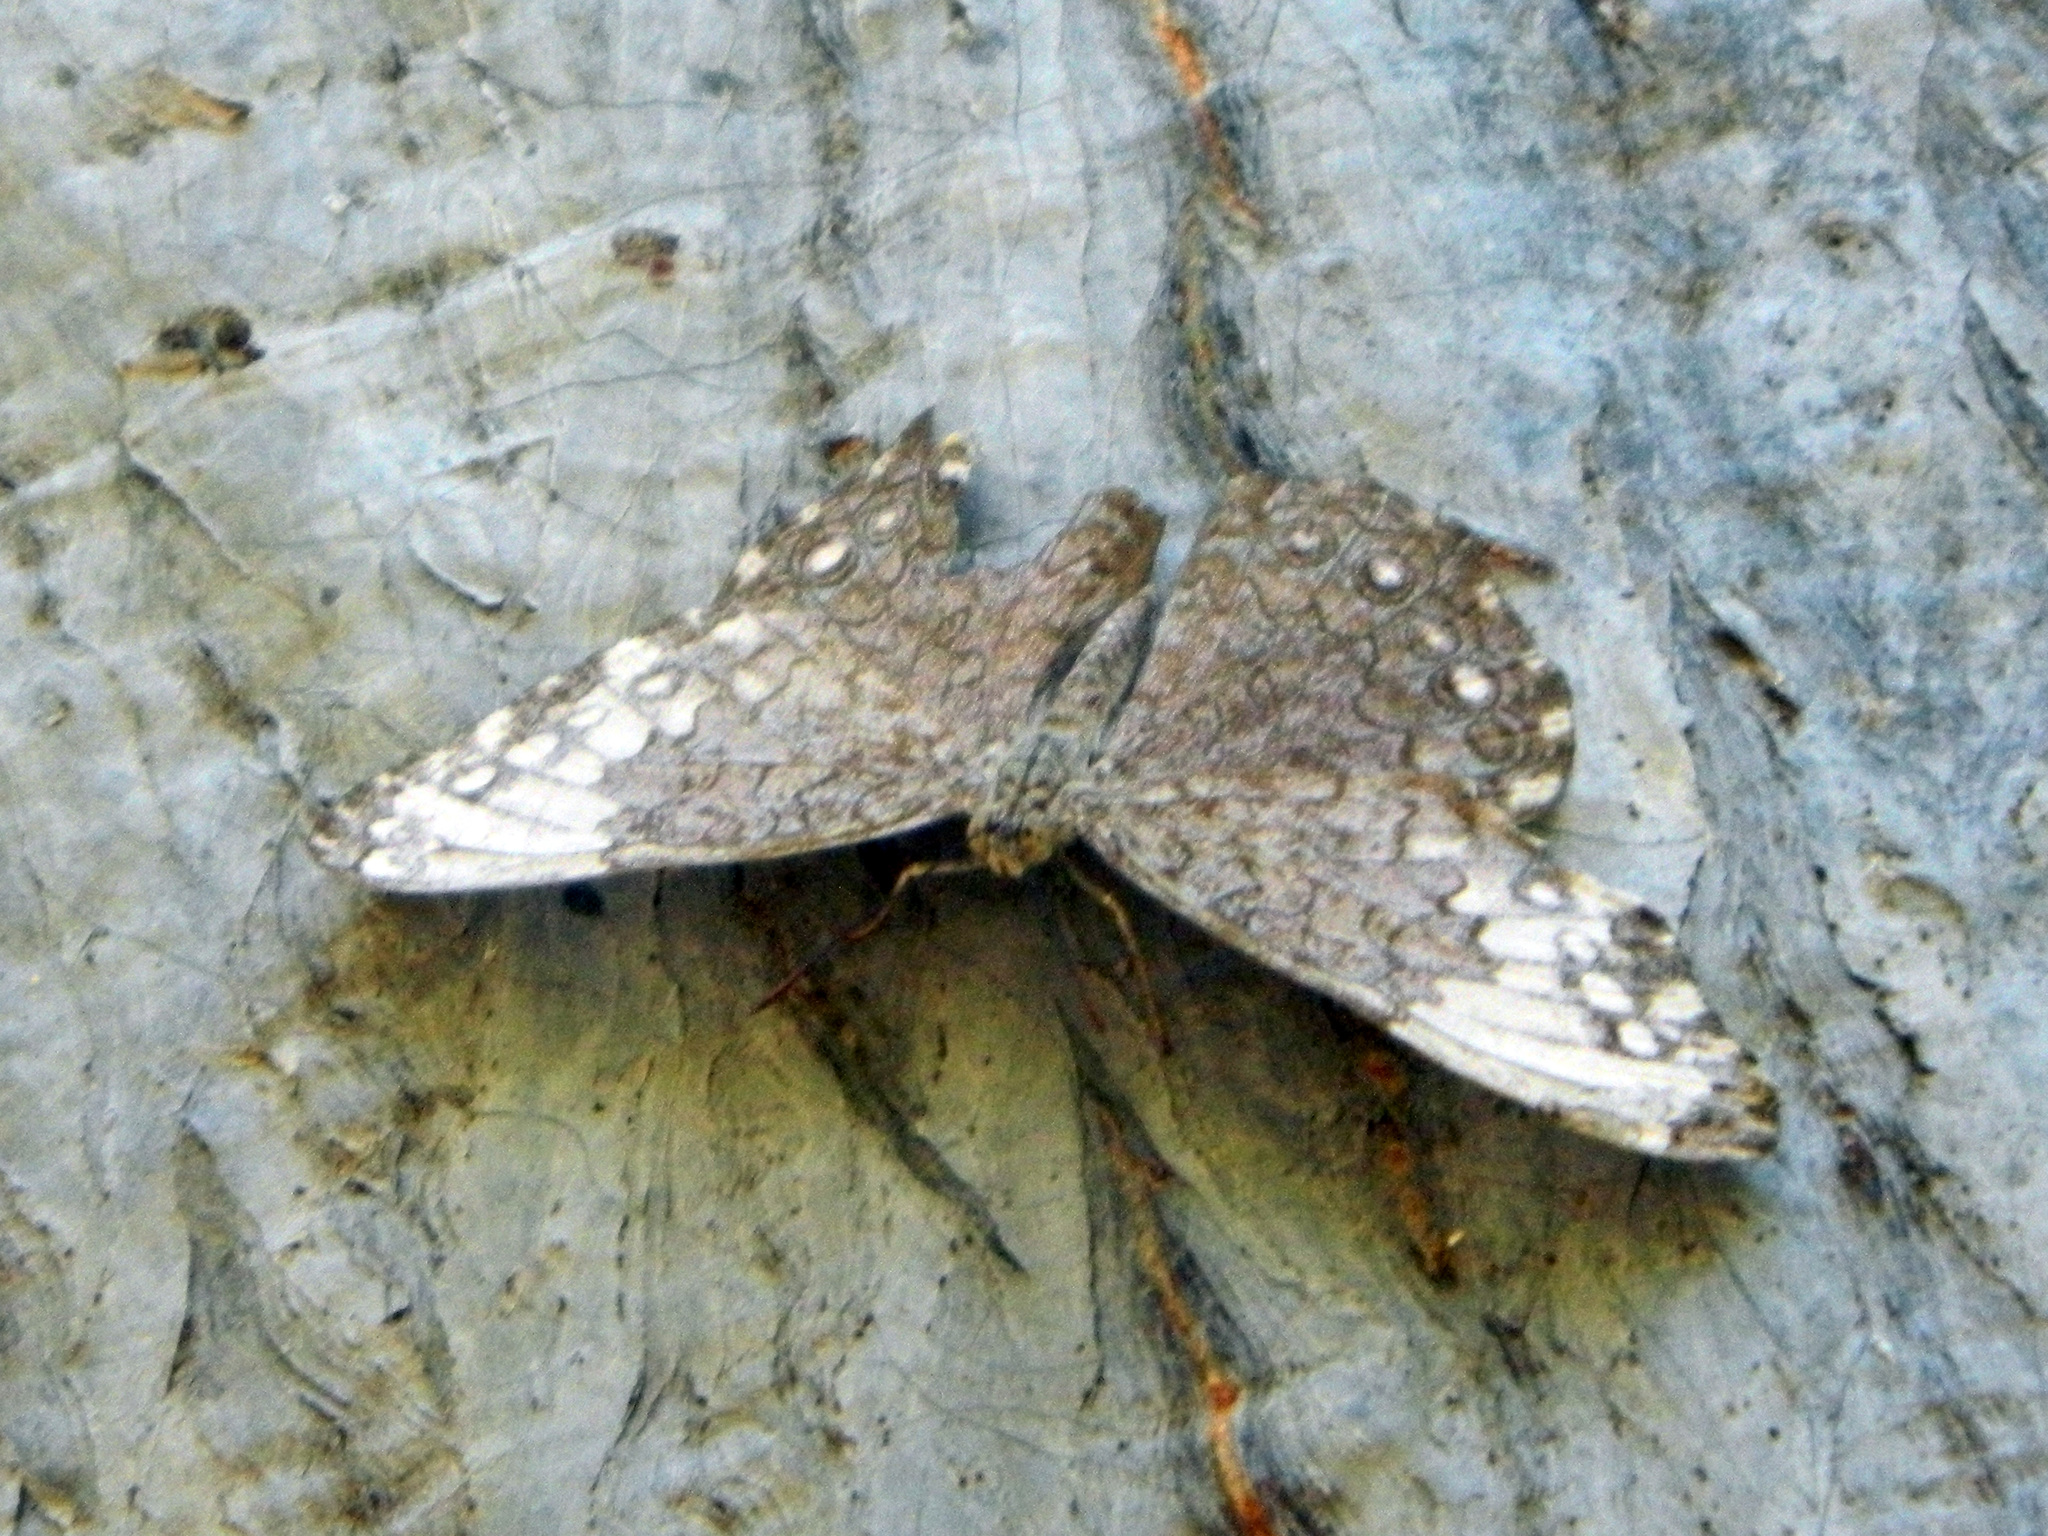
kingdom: Animalia
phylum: Arthropoda
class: Insecta
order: Lepidoptera
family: Nymphalidae
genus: Hamadryas
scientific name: Hamadryas glauconome
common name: Glaucous cracker
